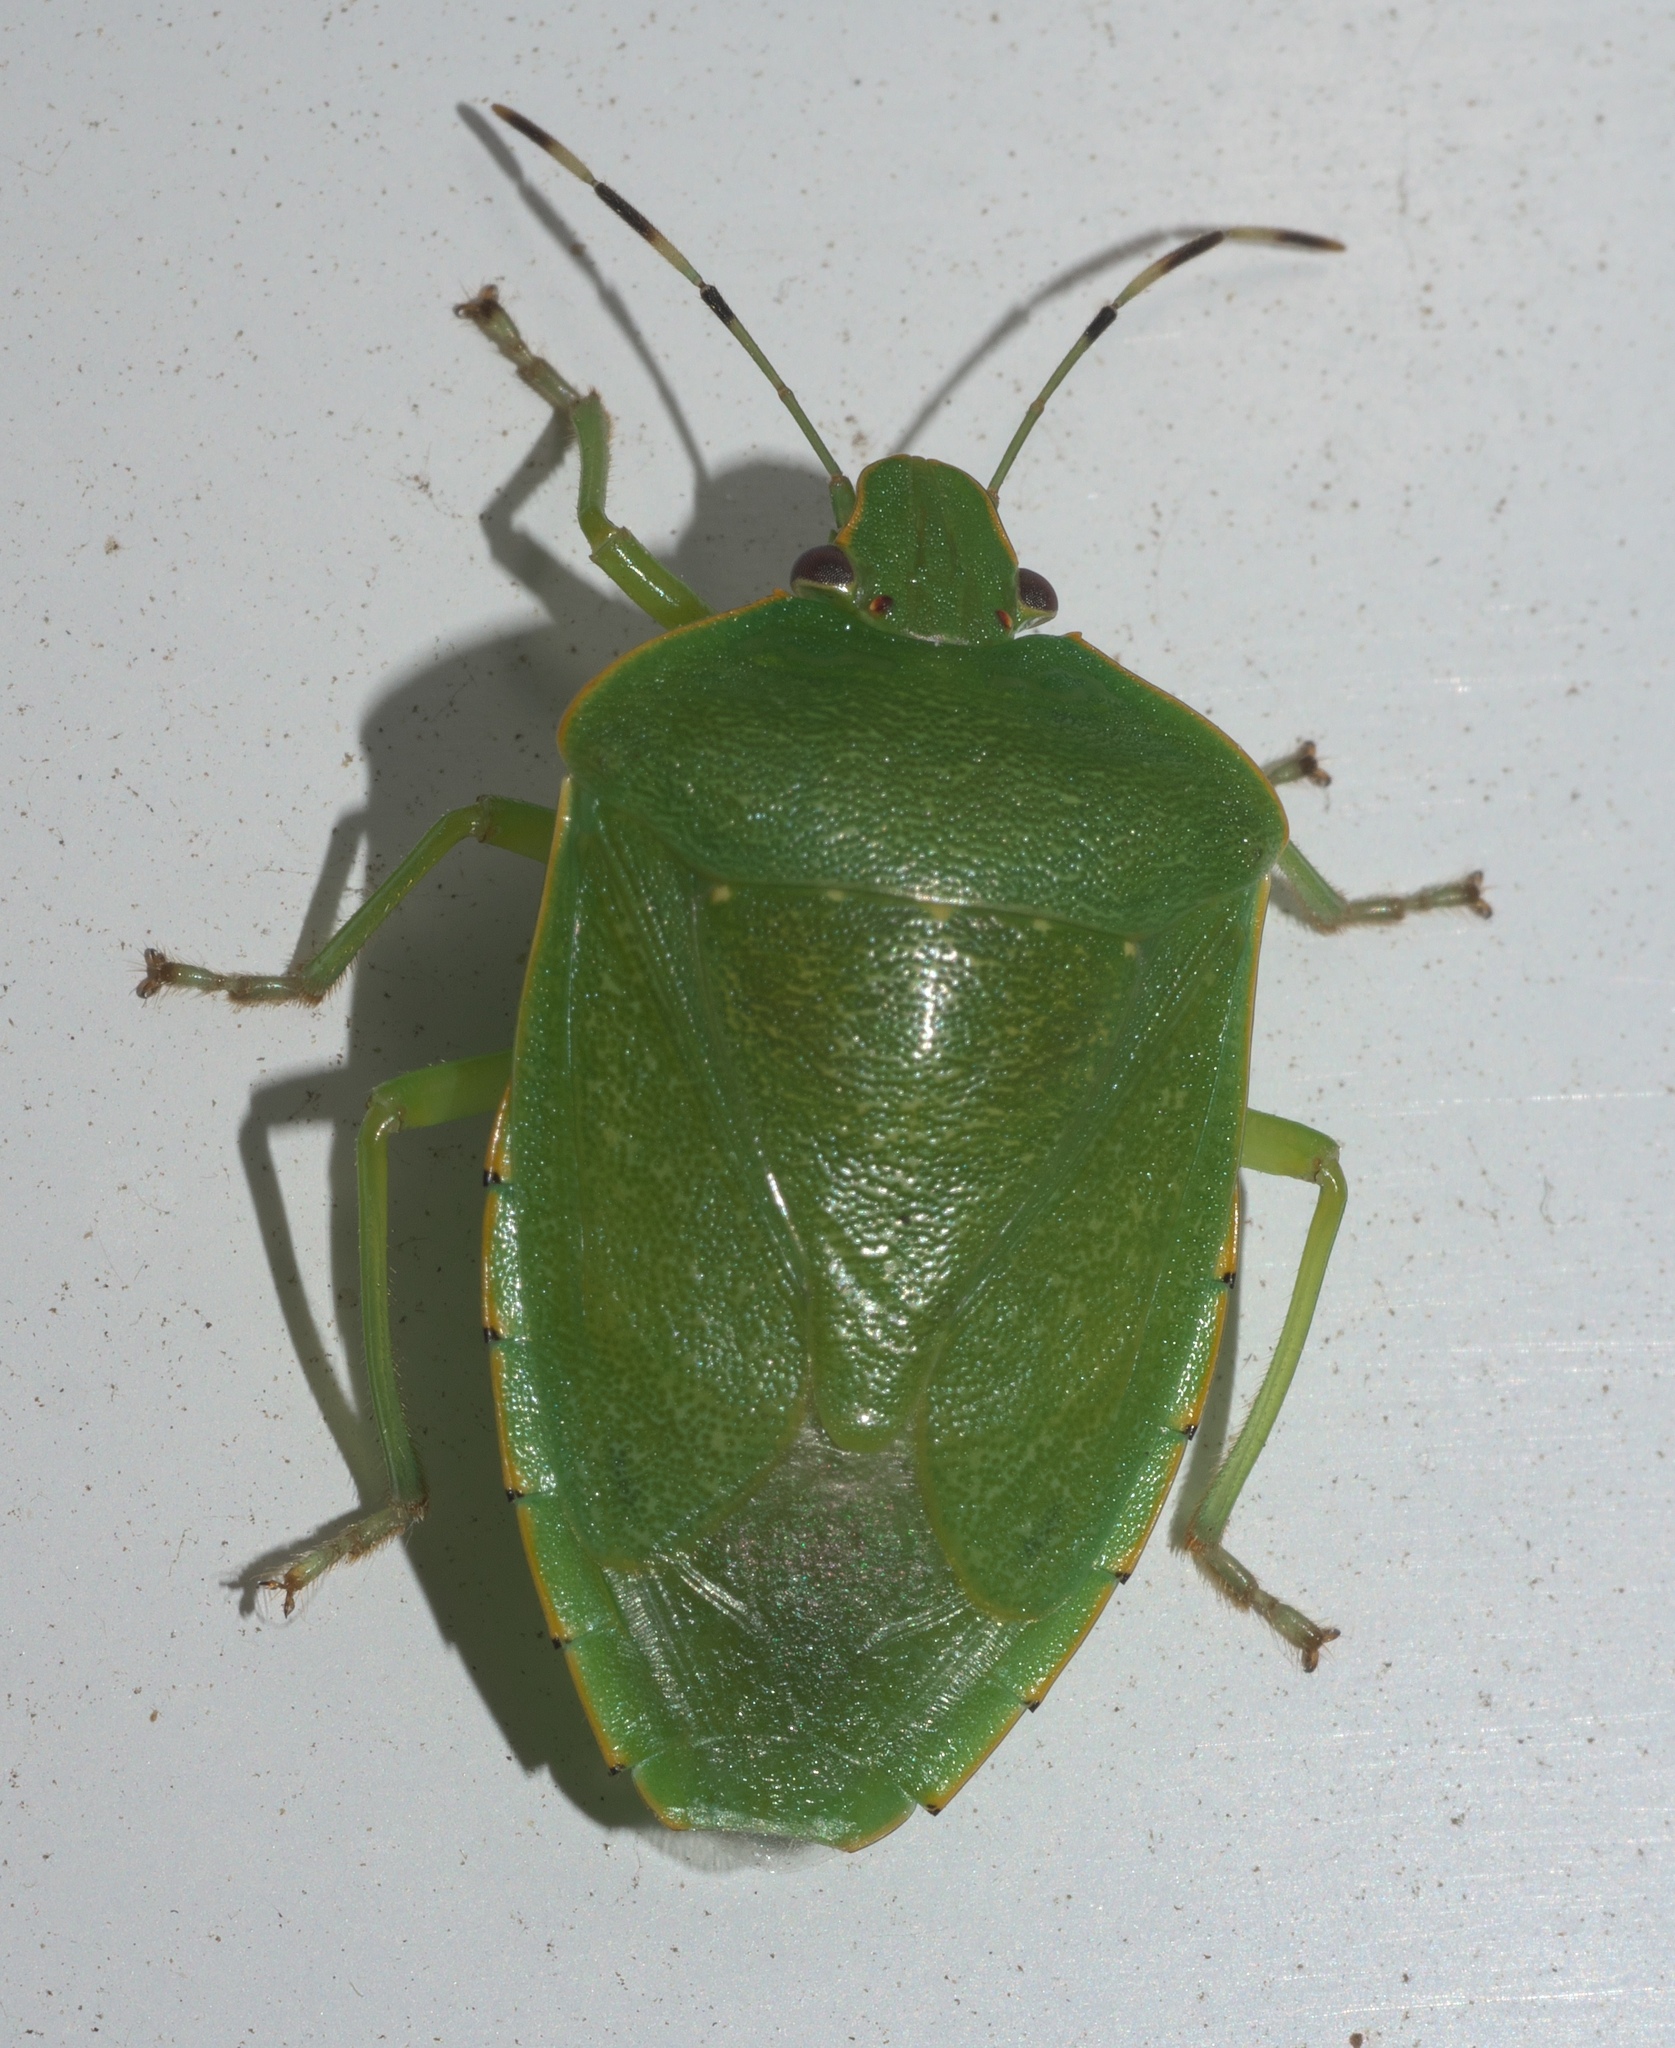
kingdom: Animalia
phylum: Arthropoda
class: Insecta
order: Hemiptera
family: Pentatomidae
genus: Chinavia
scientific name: Chinavia hilaris
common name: Green stink bug
